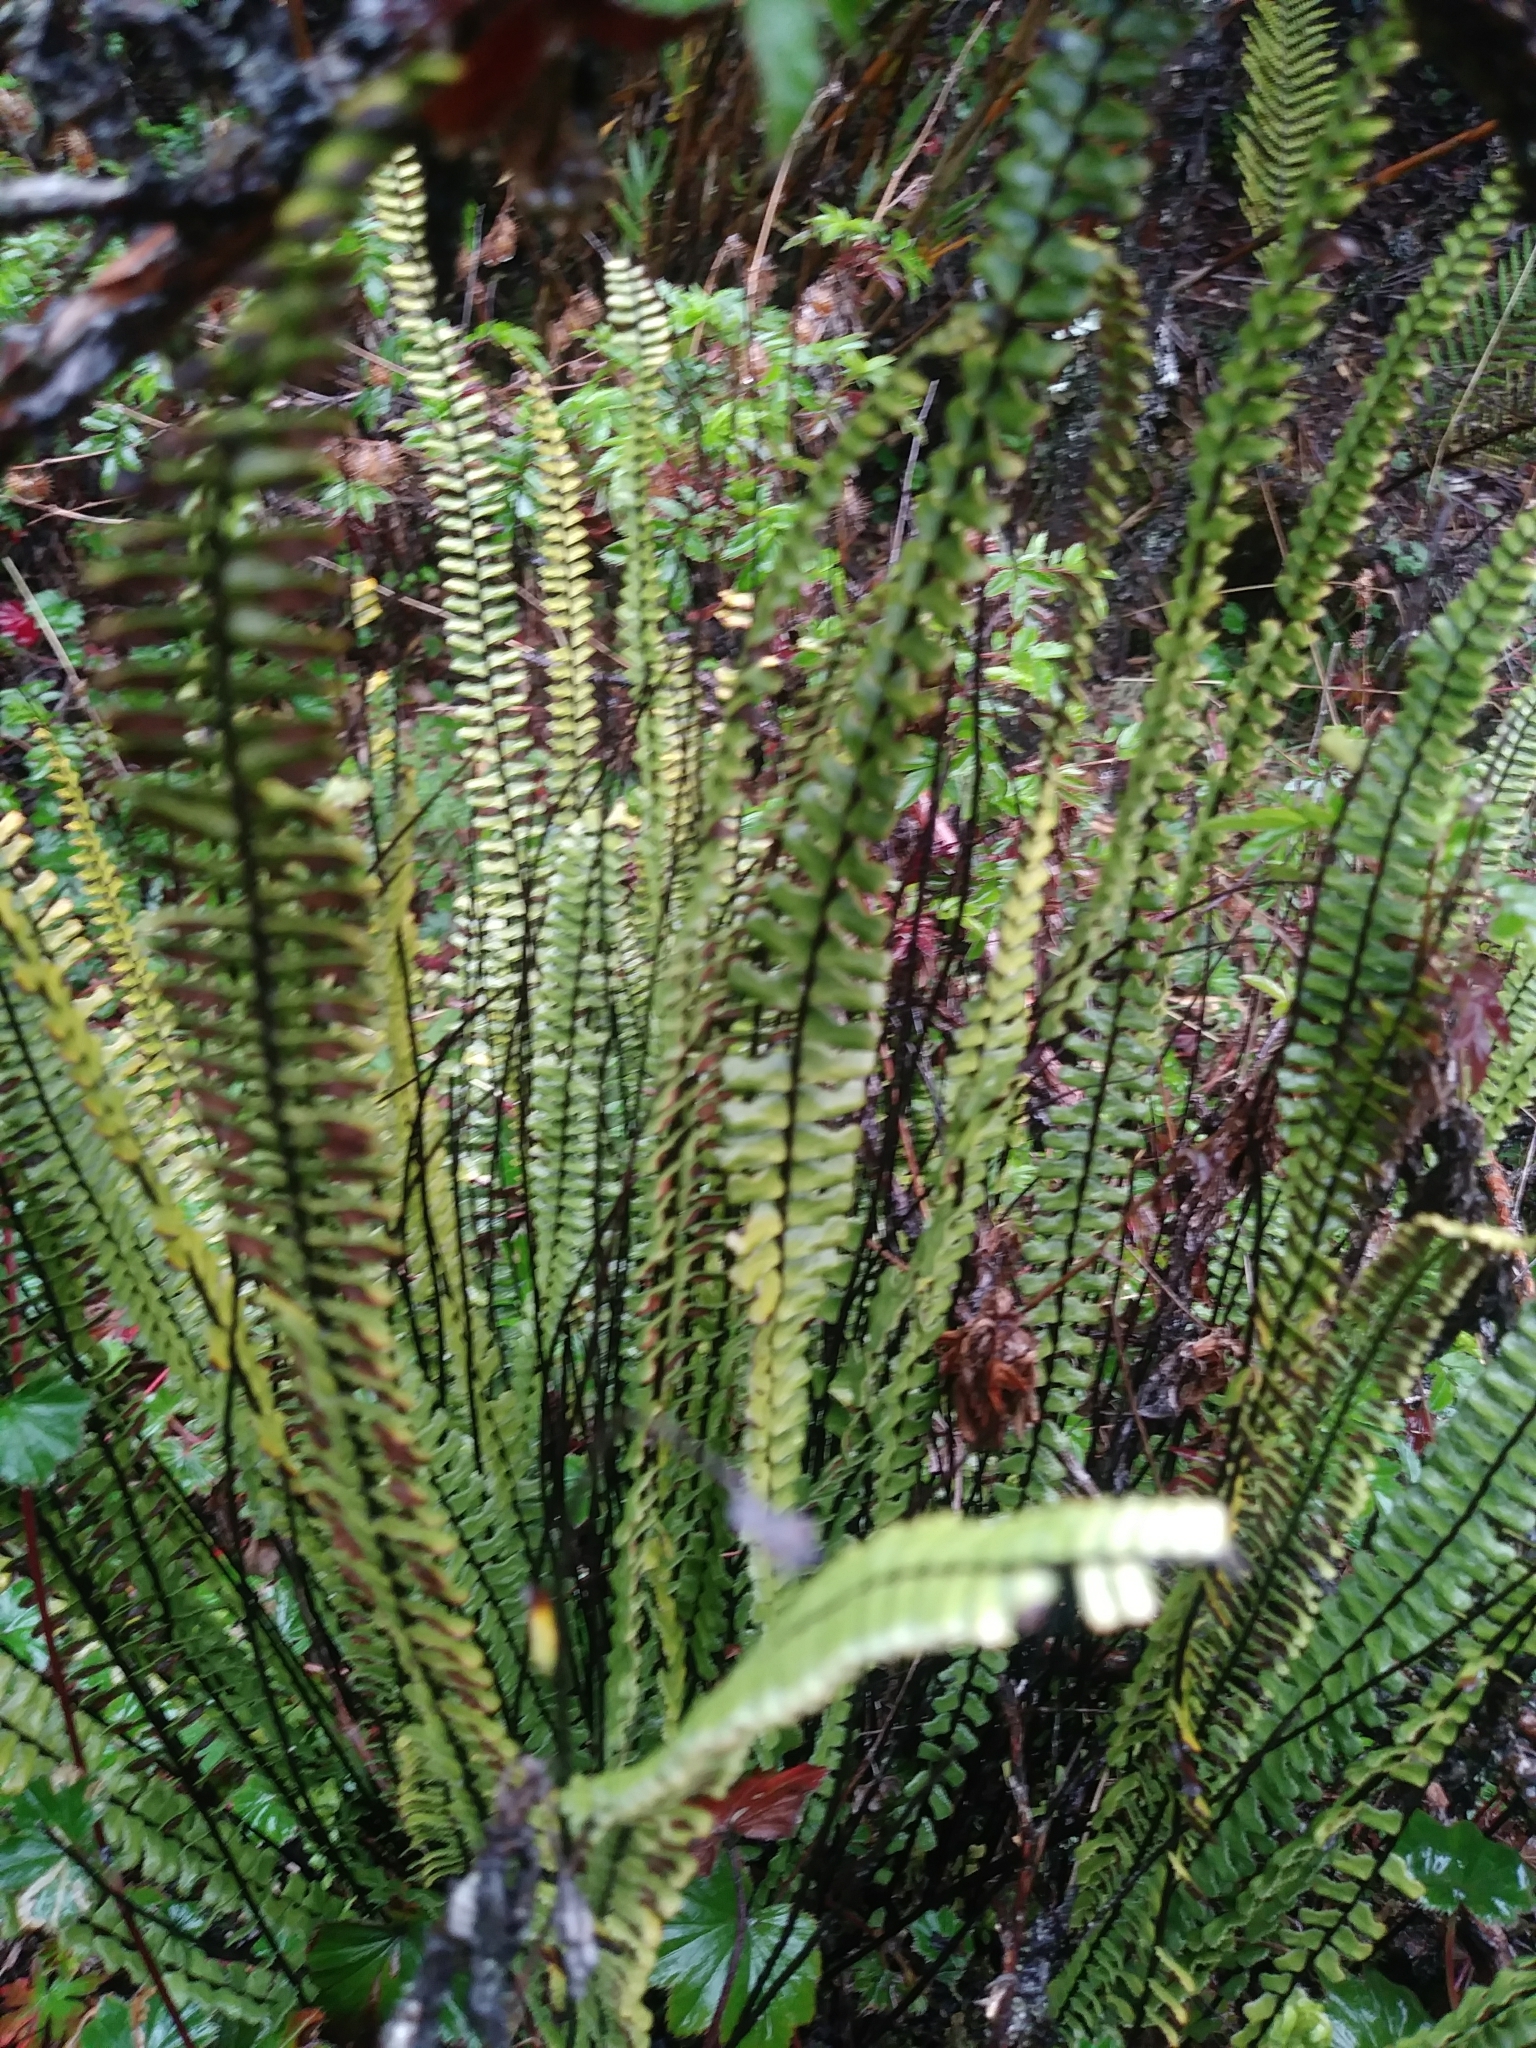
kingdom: Plantae
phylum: Tracheophyta
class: Polypodiopsida
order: Polypodiales
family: Aspleniaceae
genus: Asplenium
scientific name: Asplenium monanthes
